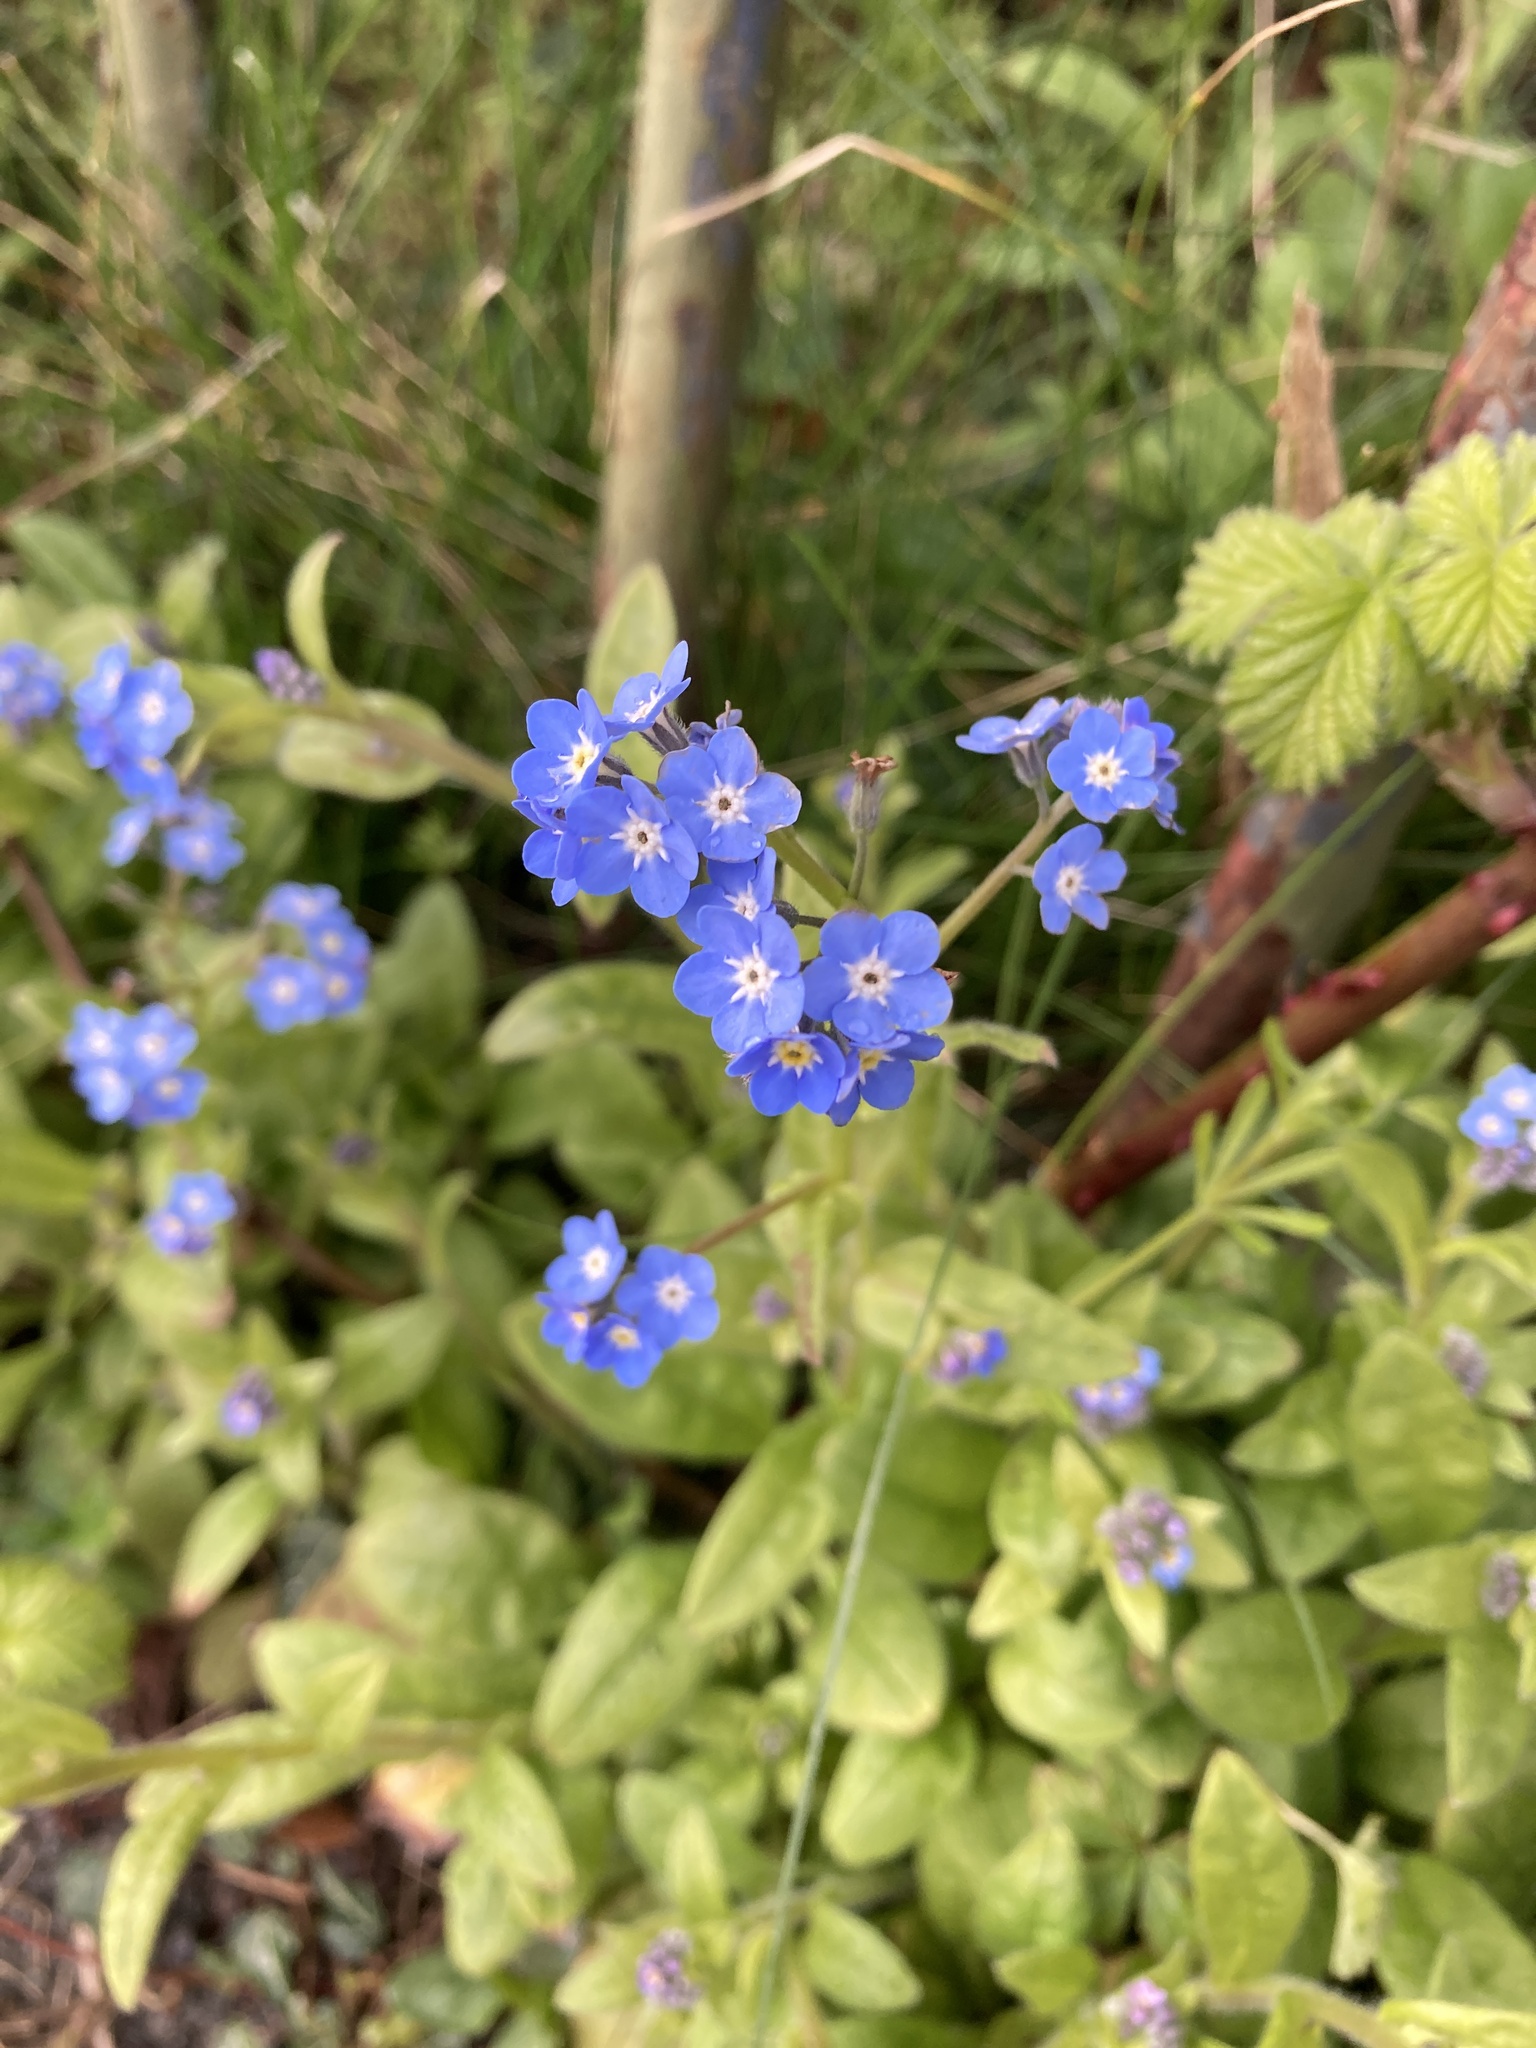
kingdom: Plantae
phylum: Tracheophyta
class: Magnoliopsida
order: Boraginales
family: Boraginaceae
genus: Myosotis
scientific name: Myosotis sylvatica
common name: Wood forget-me-not
